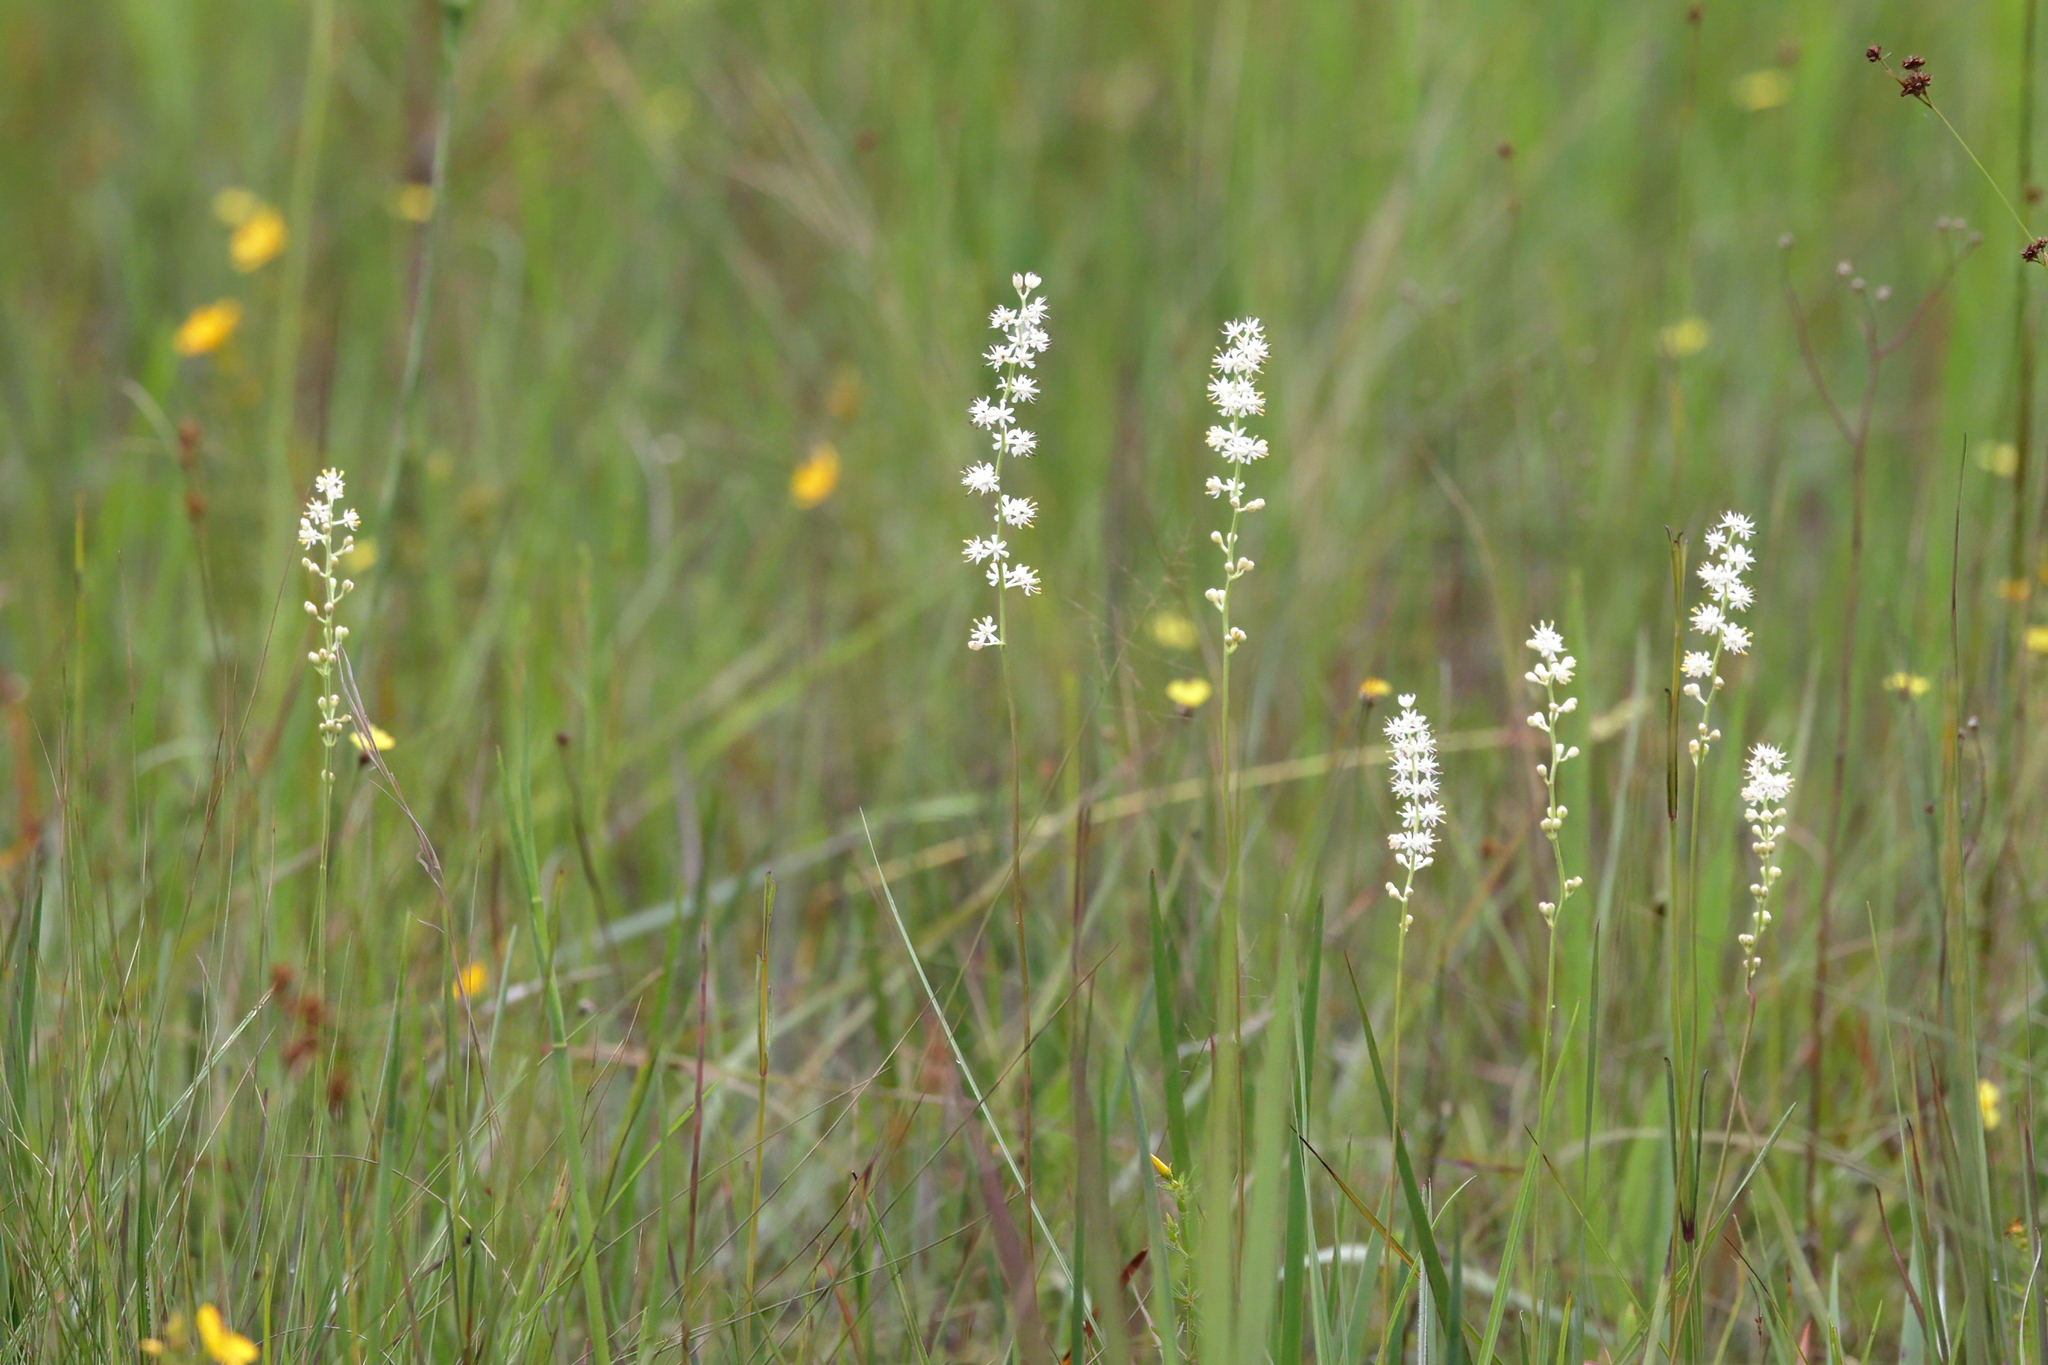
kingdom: Plantae
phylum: Tracheophyta
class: Liliopsida
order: Alismatales
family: Tofieldiaceae
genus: Triantha
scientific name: Triantha racemosa
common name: Coastal false asphodel
